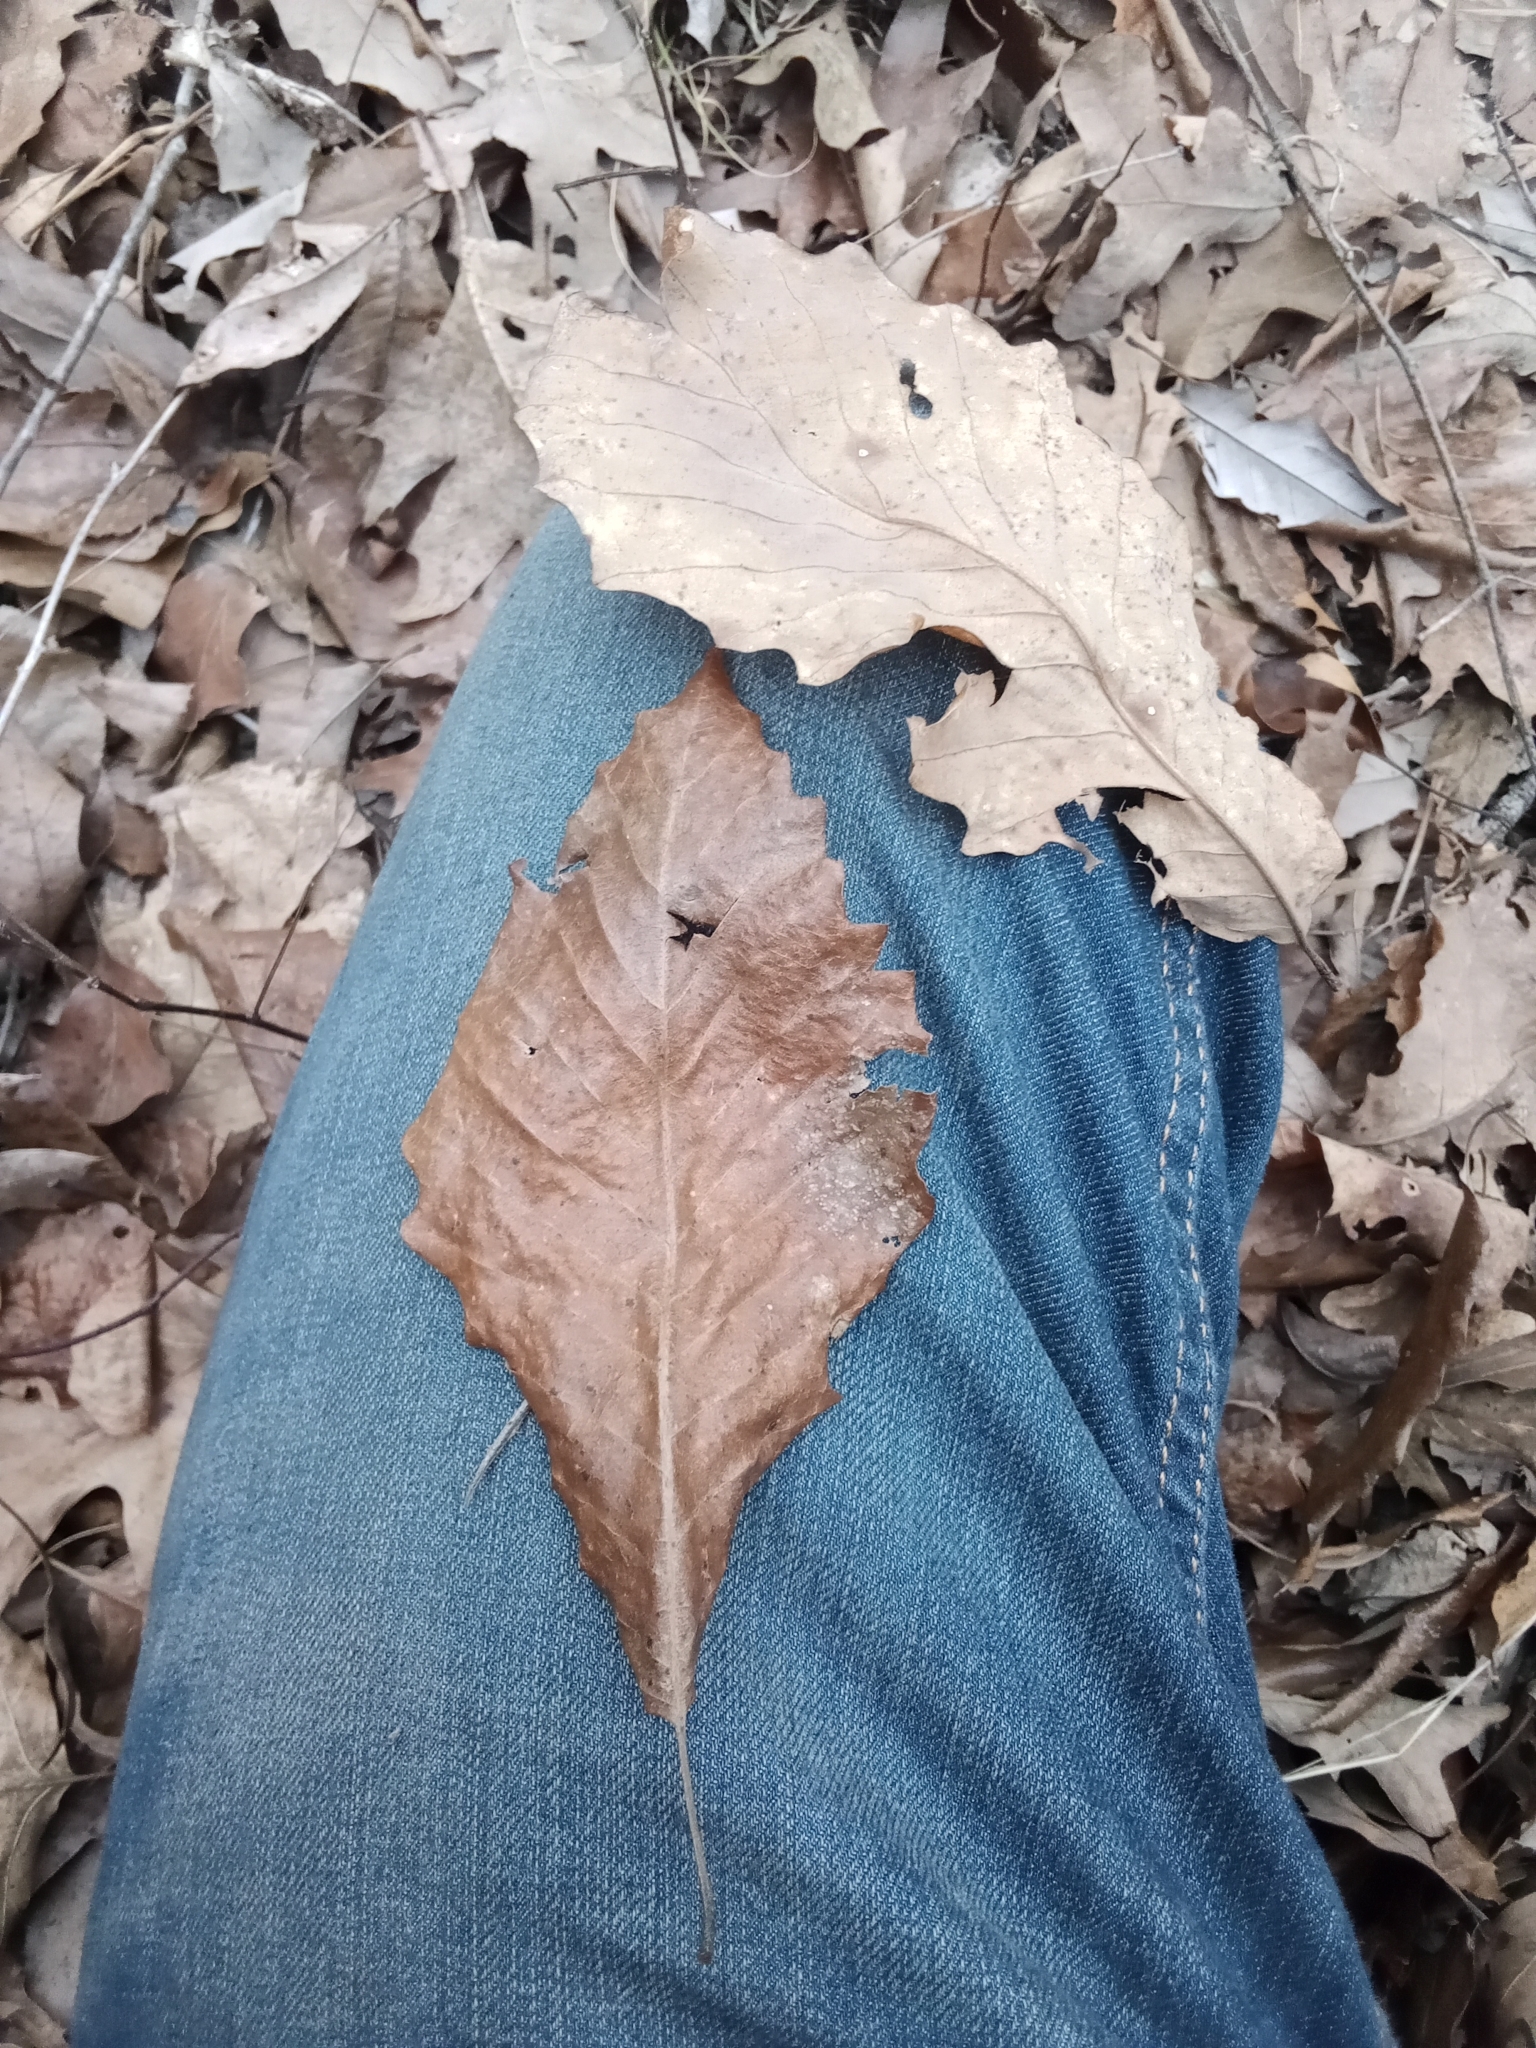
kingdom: Plantae
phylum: Tracheophyta
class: Magnoliopsida
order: Fagales
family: Fagaceae
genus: Quercus
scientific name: Quercus muehlenbergii
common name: Chinkapin oak
